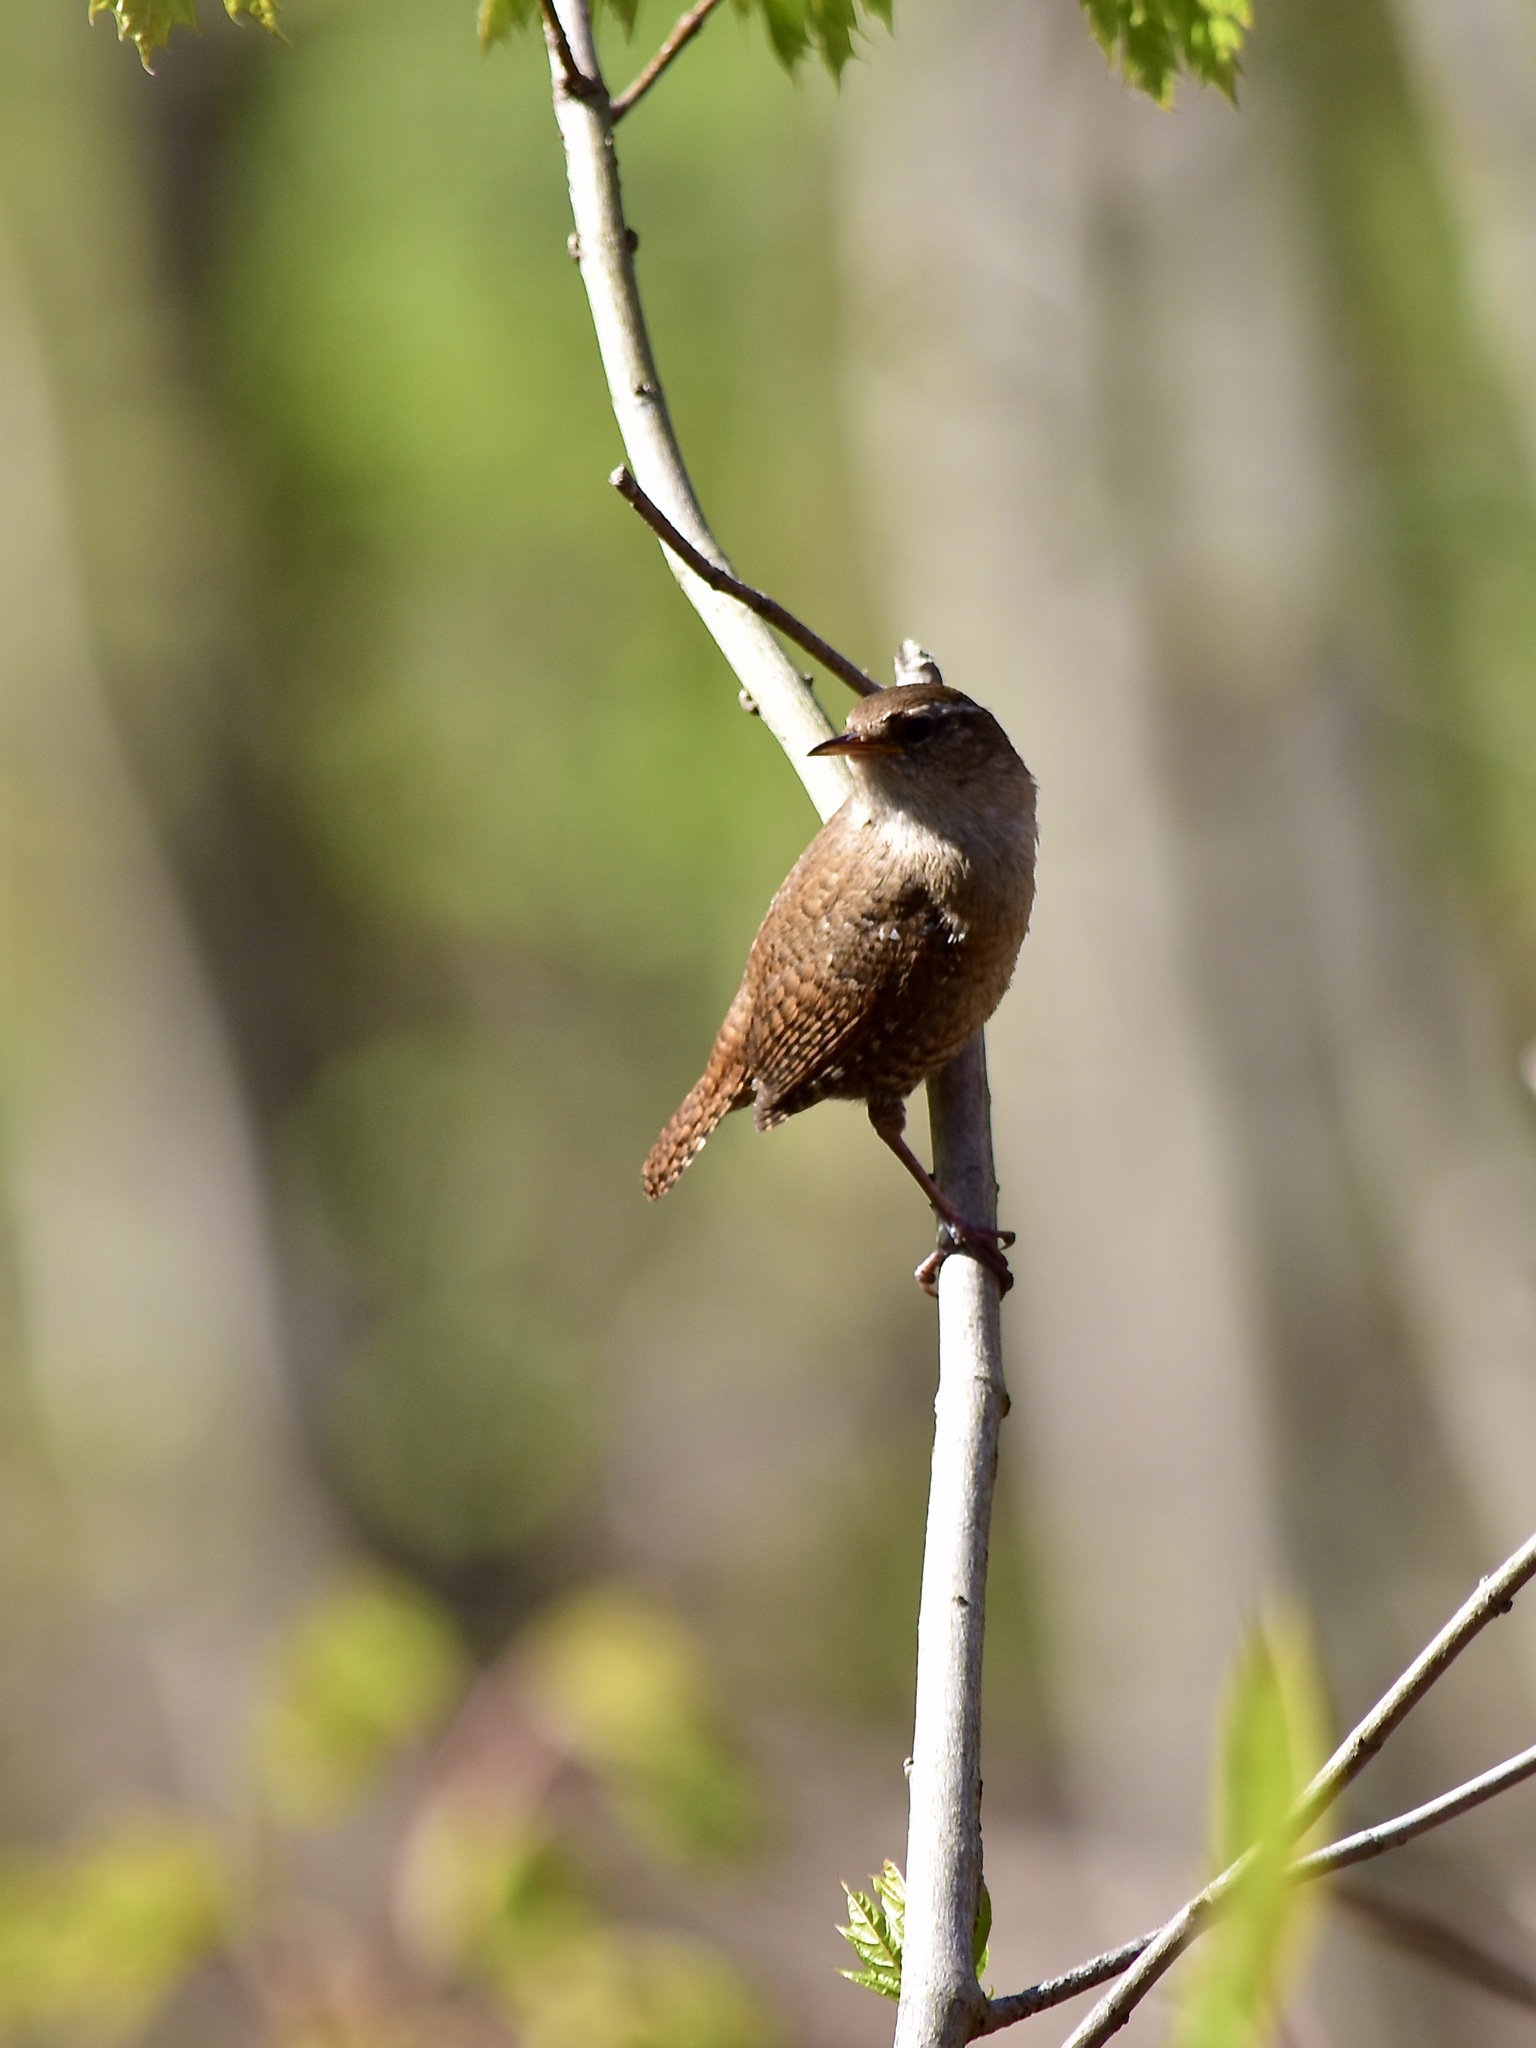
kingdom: Animalia
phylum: Chordata
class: Aves
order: Passeriformes
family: Troglodytidae
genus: Troglodytes
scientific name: Troglodytes troglodytes
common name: Eurasian wren
